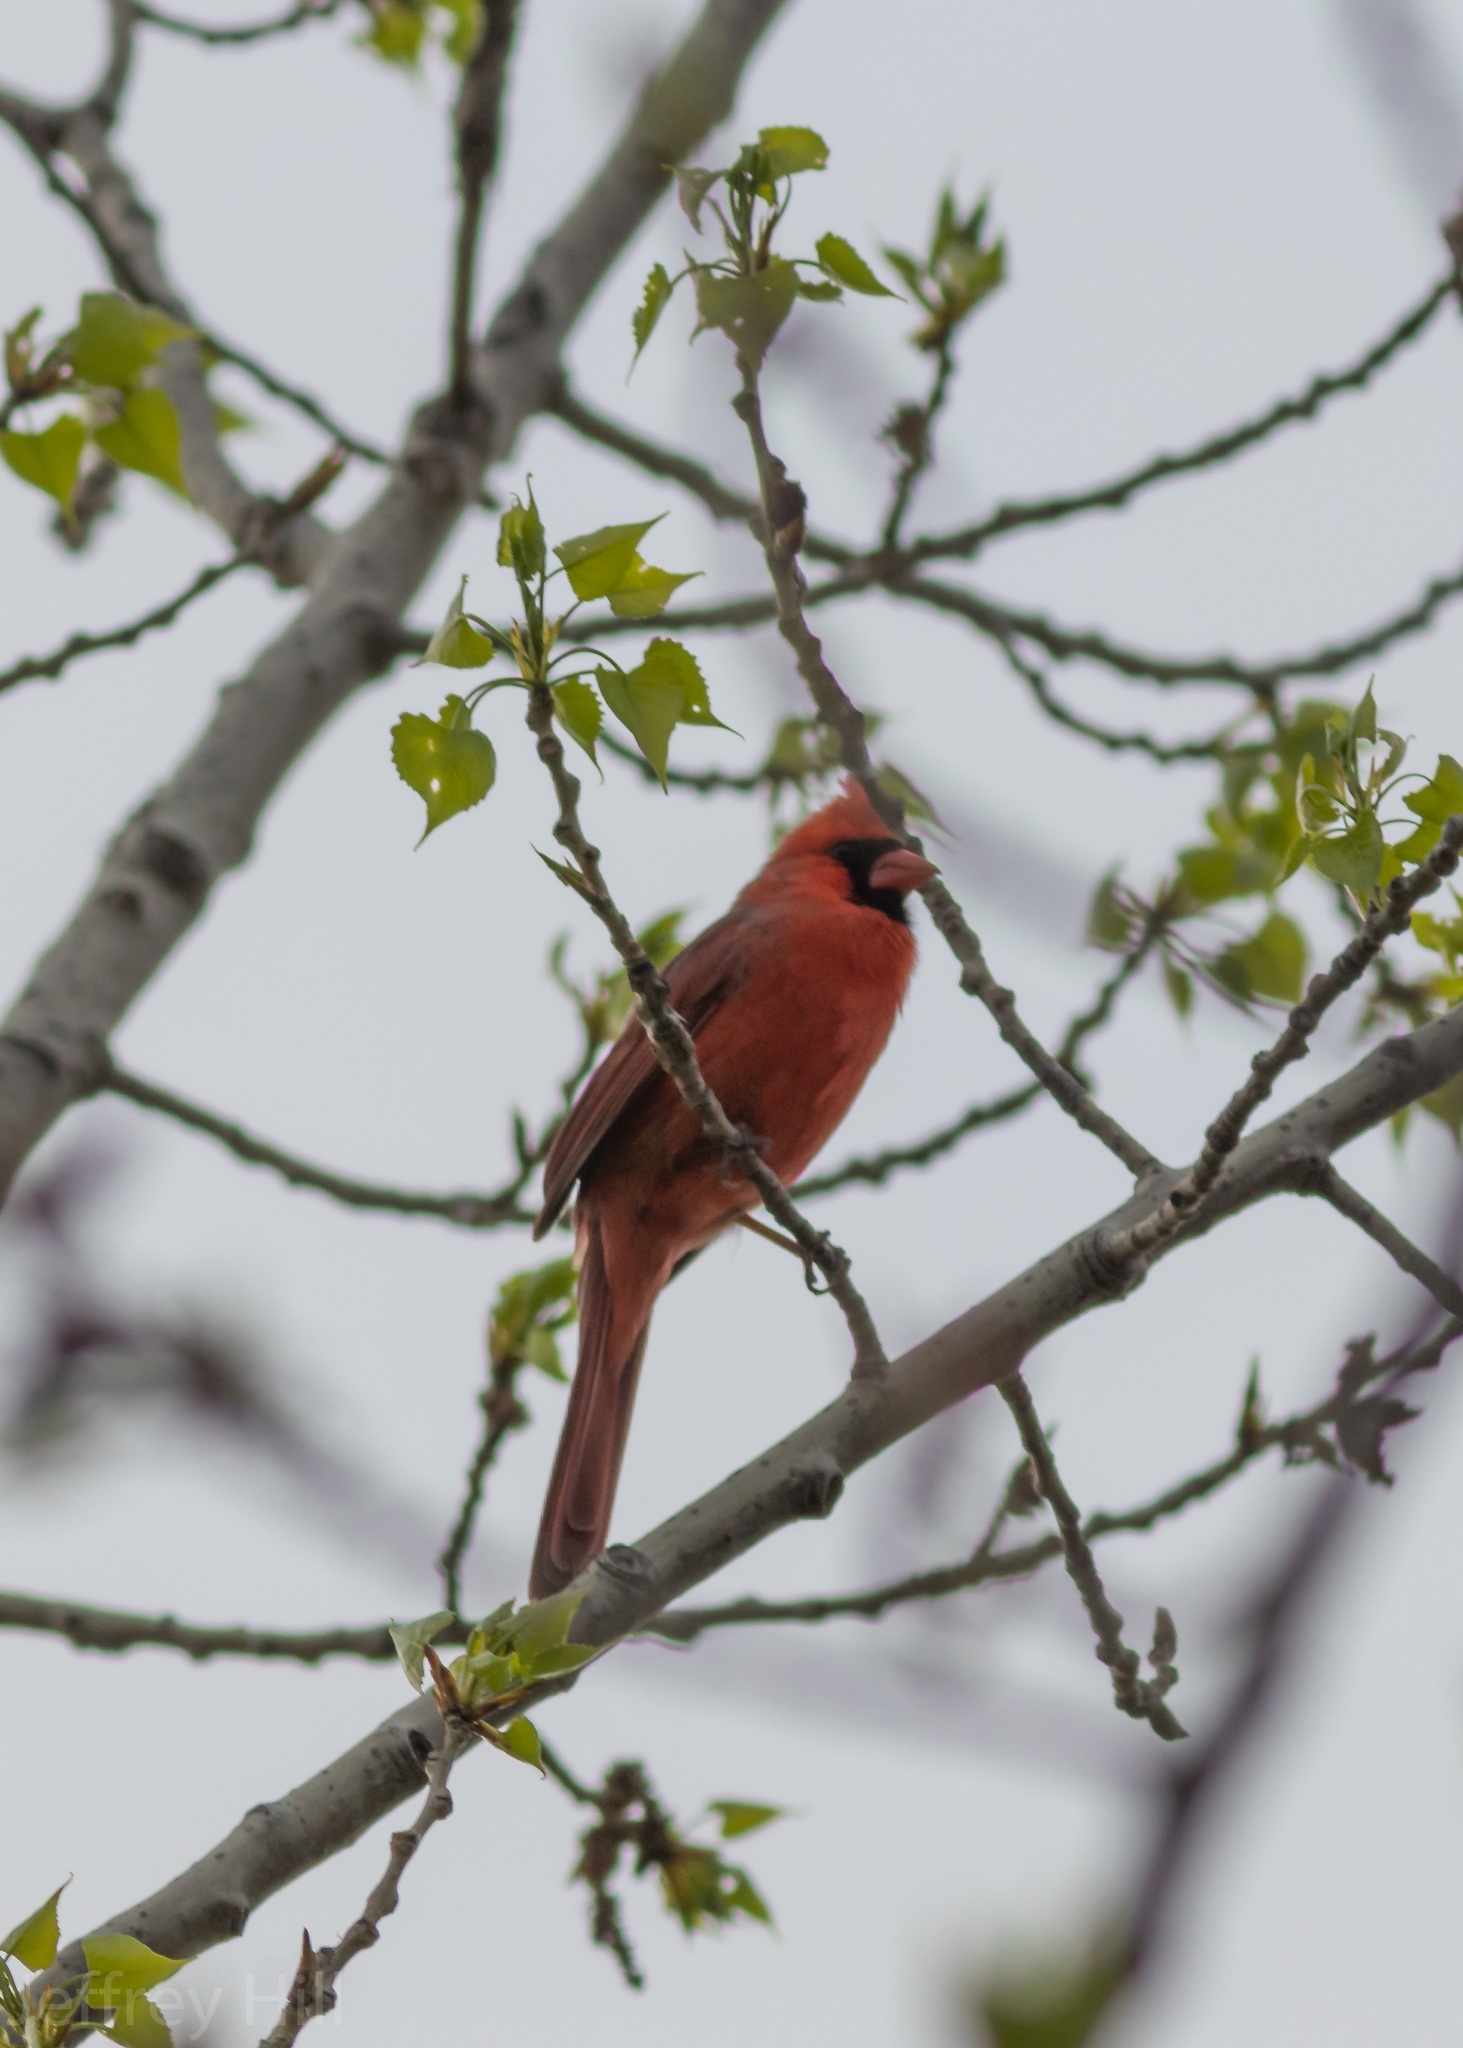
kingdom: Animalia
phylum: Chordata
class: Aves
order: Passeriformes
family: Cardinalidae
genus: Cardinalis
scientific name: Cardinalis cardinalis
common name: Northern cardinal
